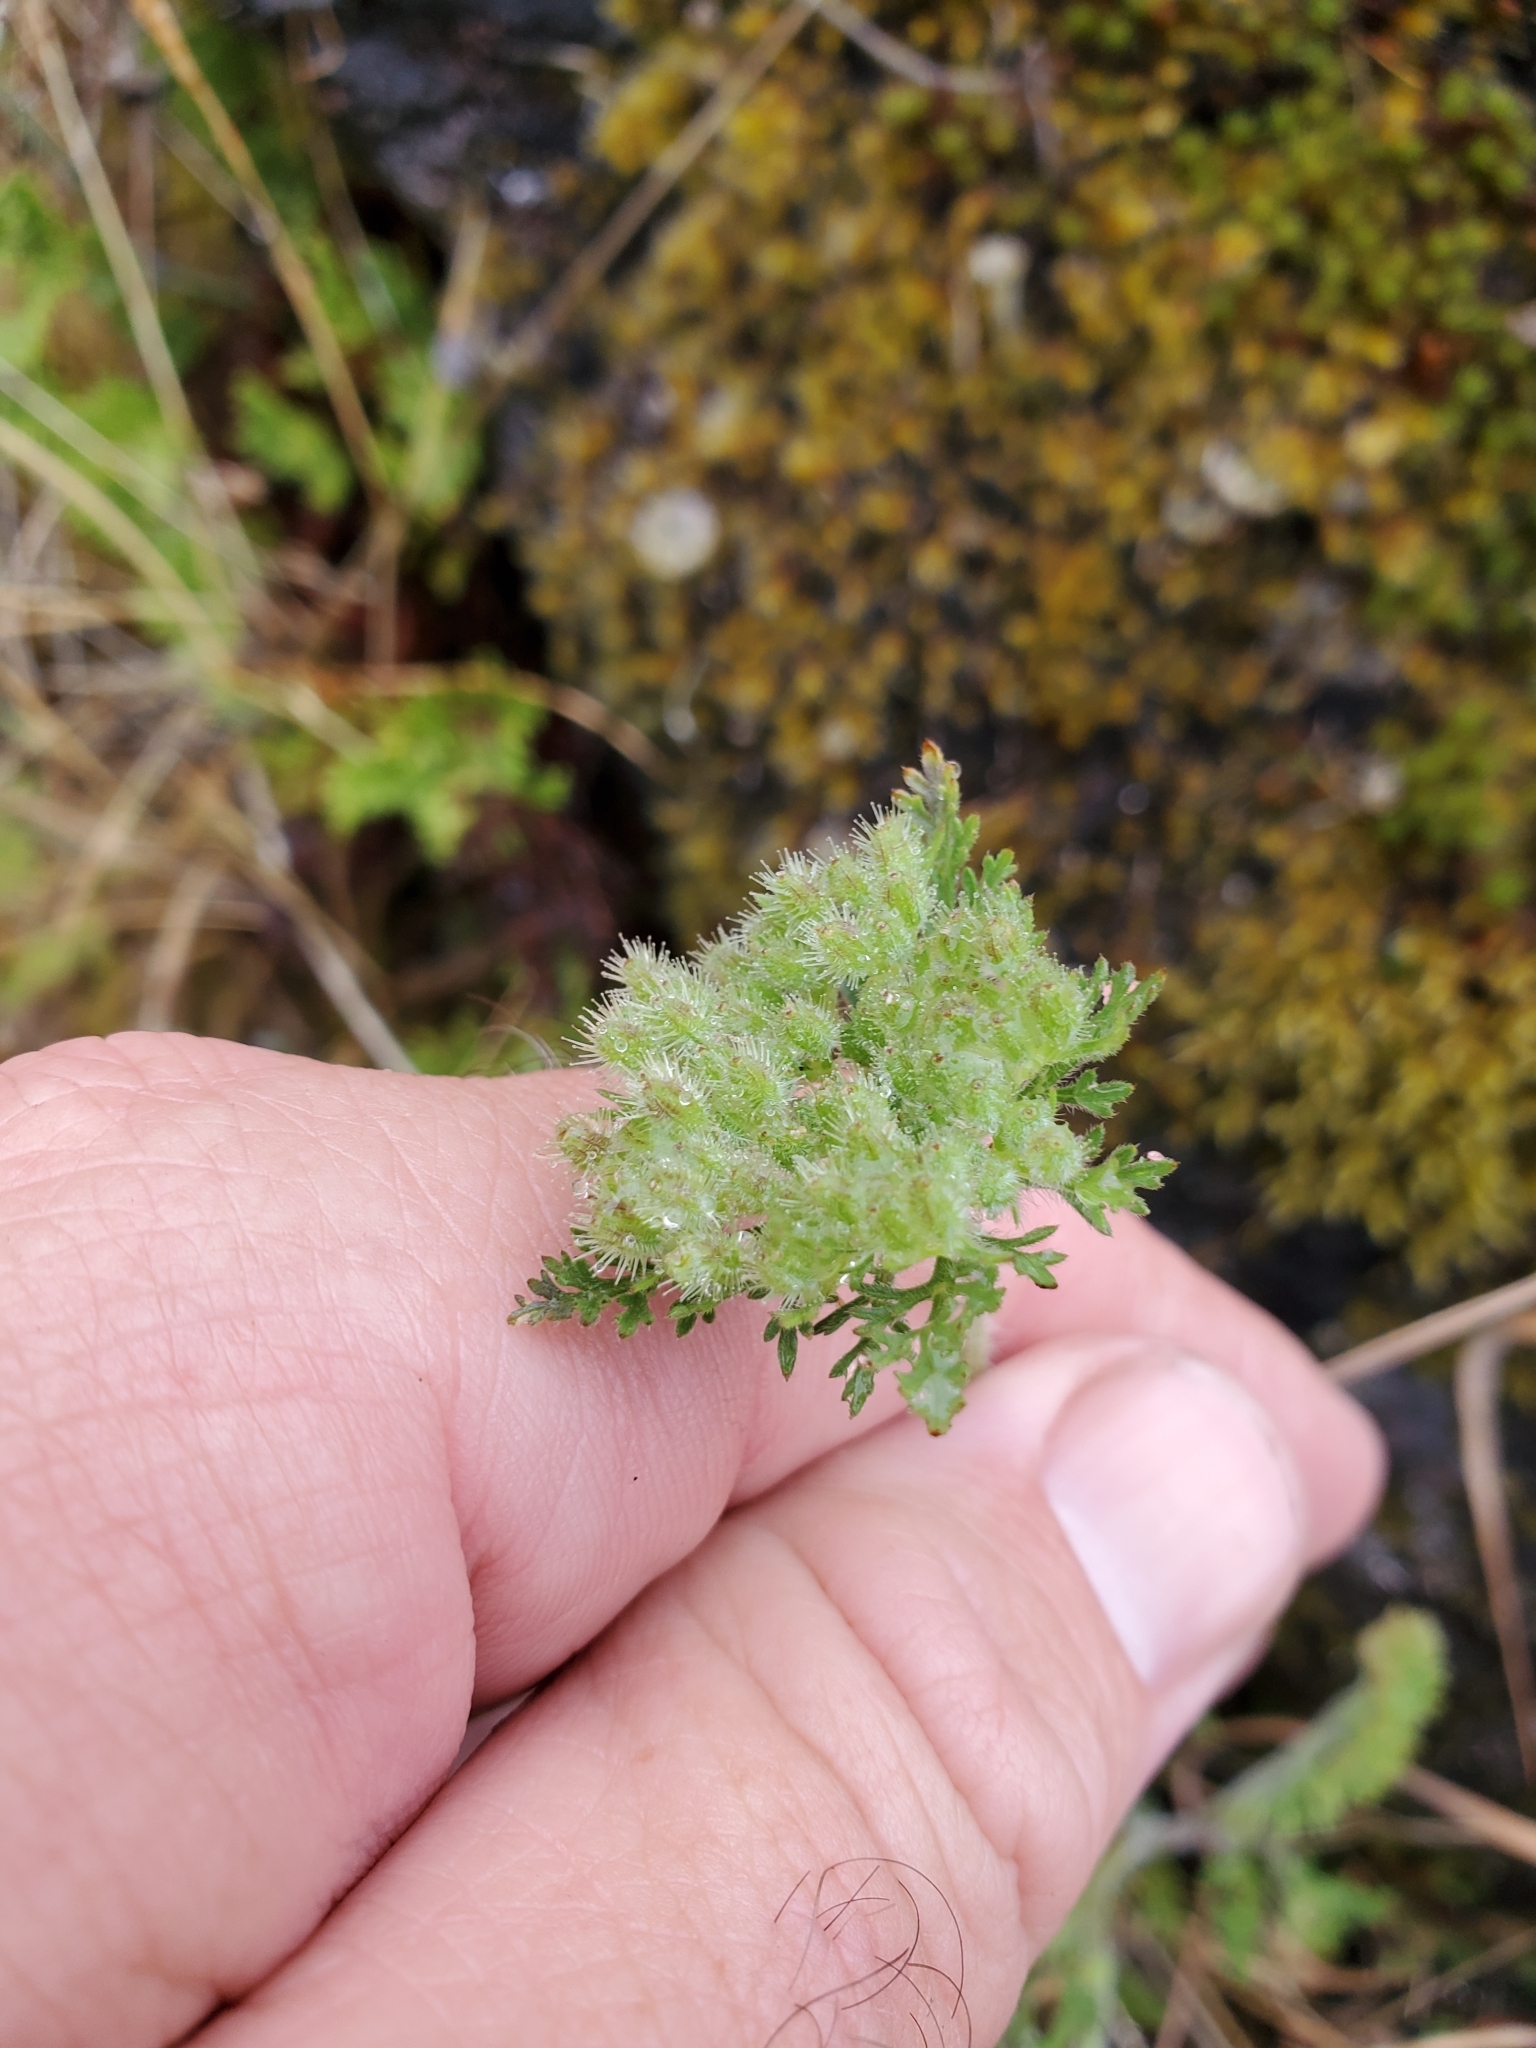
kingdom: Plantae
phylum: Tracheophyta
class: Magnoliopsida
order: Apiales
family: Apiaceae
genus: Daucus
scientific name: Daucus pusillus
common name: Southwest wild carrot
